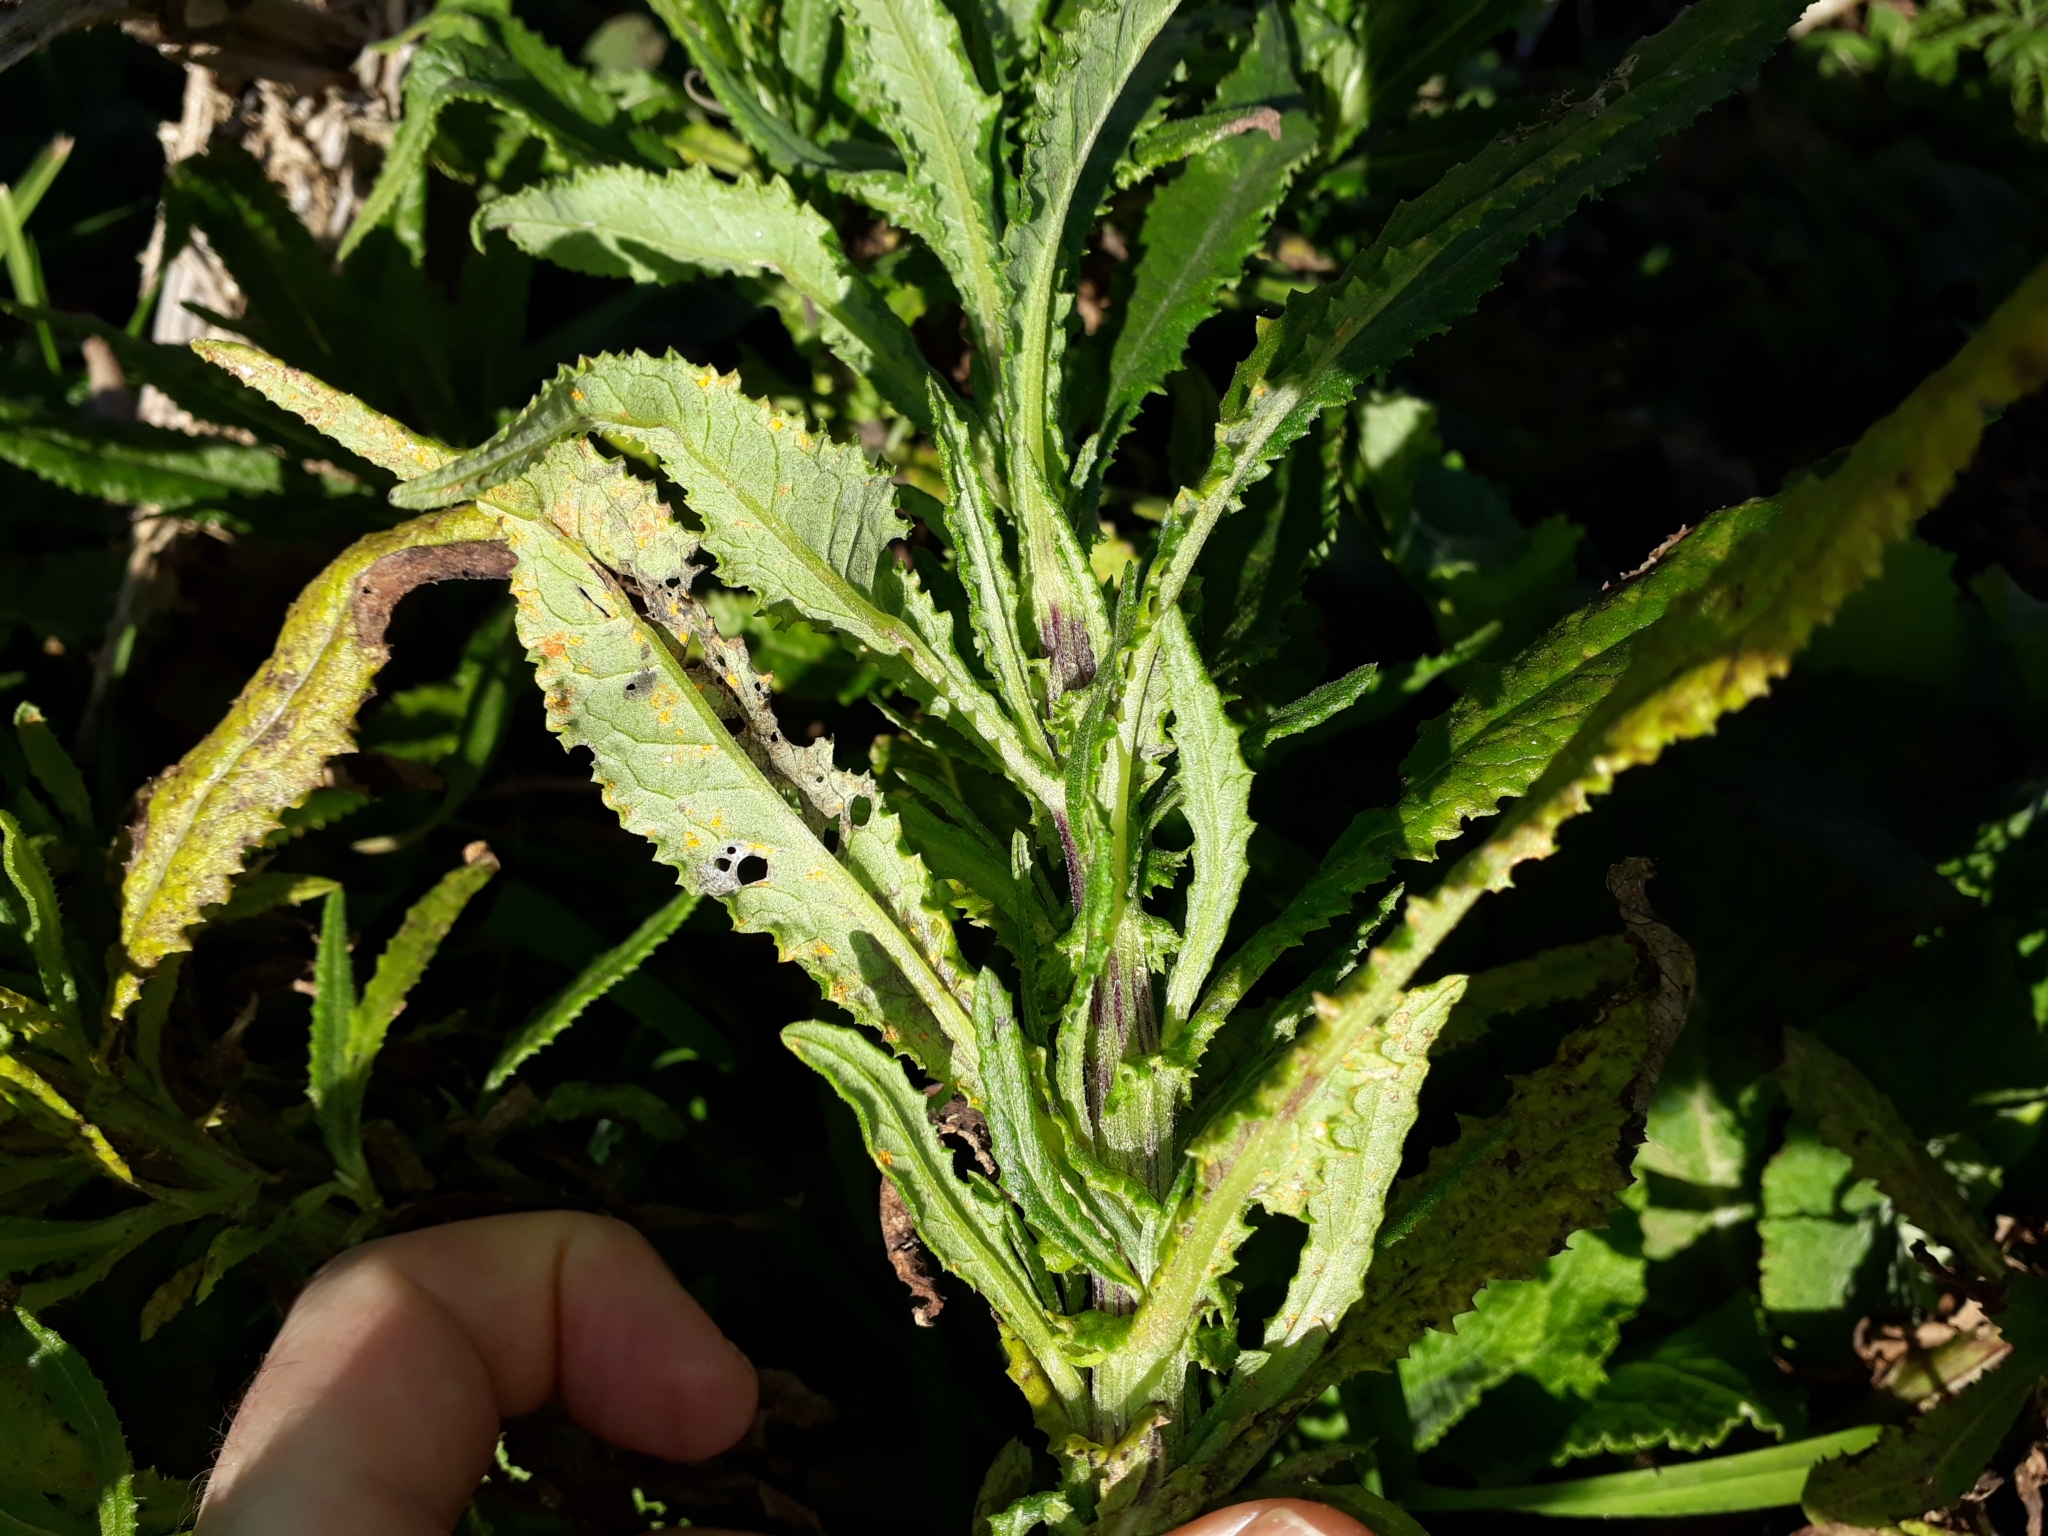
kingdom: Plantae
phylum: Tracheophyta
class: Magnoliopsida
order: Asterales
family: Asteraceae
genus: Senecio
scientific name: Senecio minimus
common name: Toothed fireweed
